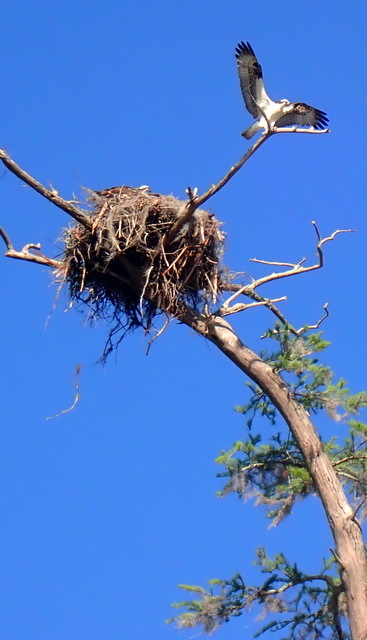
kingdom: Animalia
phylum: Chordata
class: Aves
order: Accipitriformes
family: Pandionidae
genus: Pandion
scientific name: Pandion haliaetus
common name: Osprey
